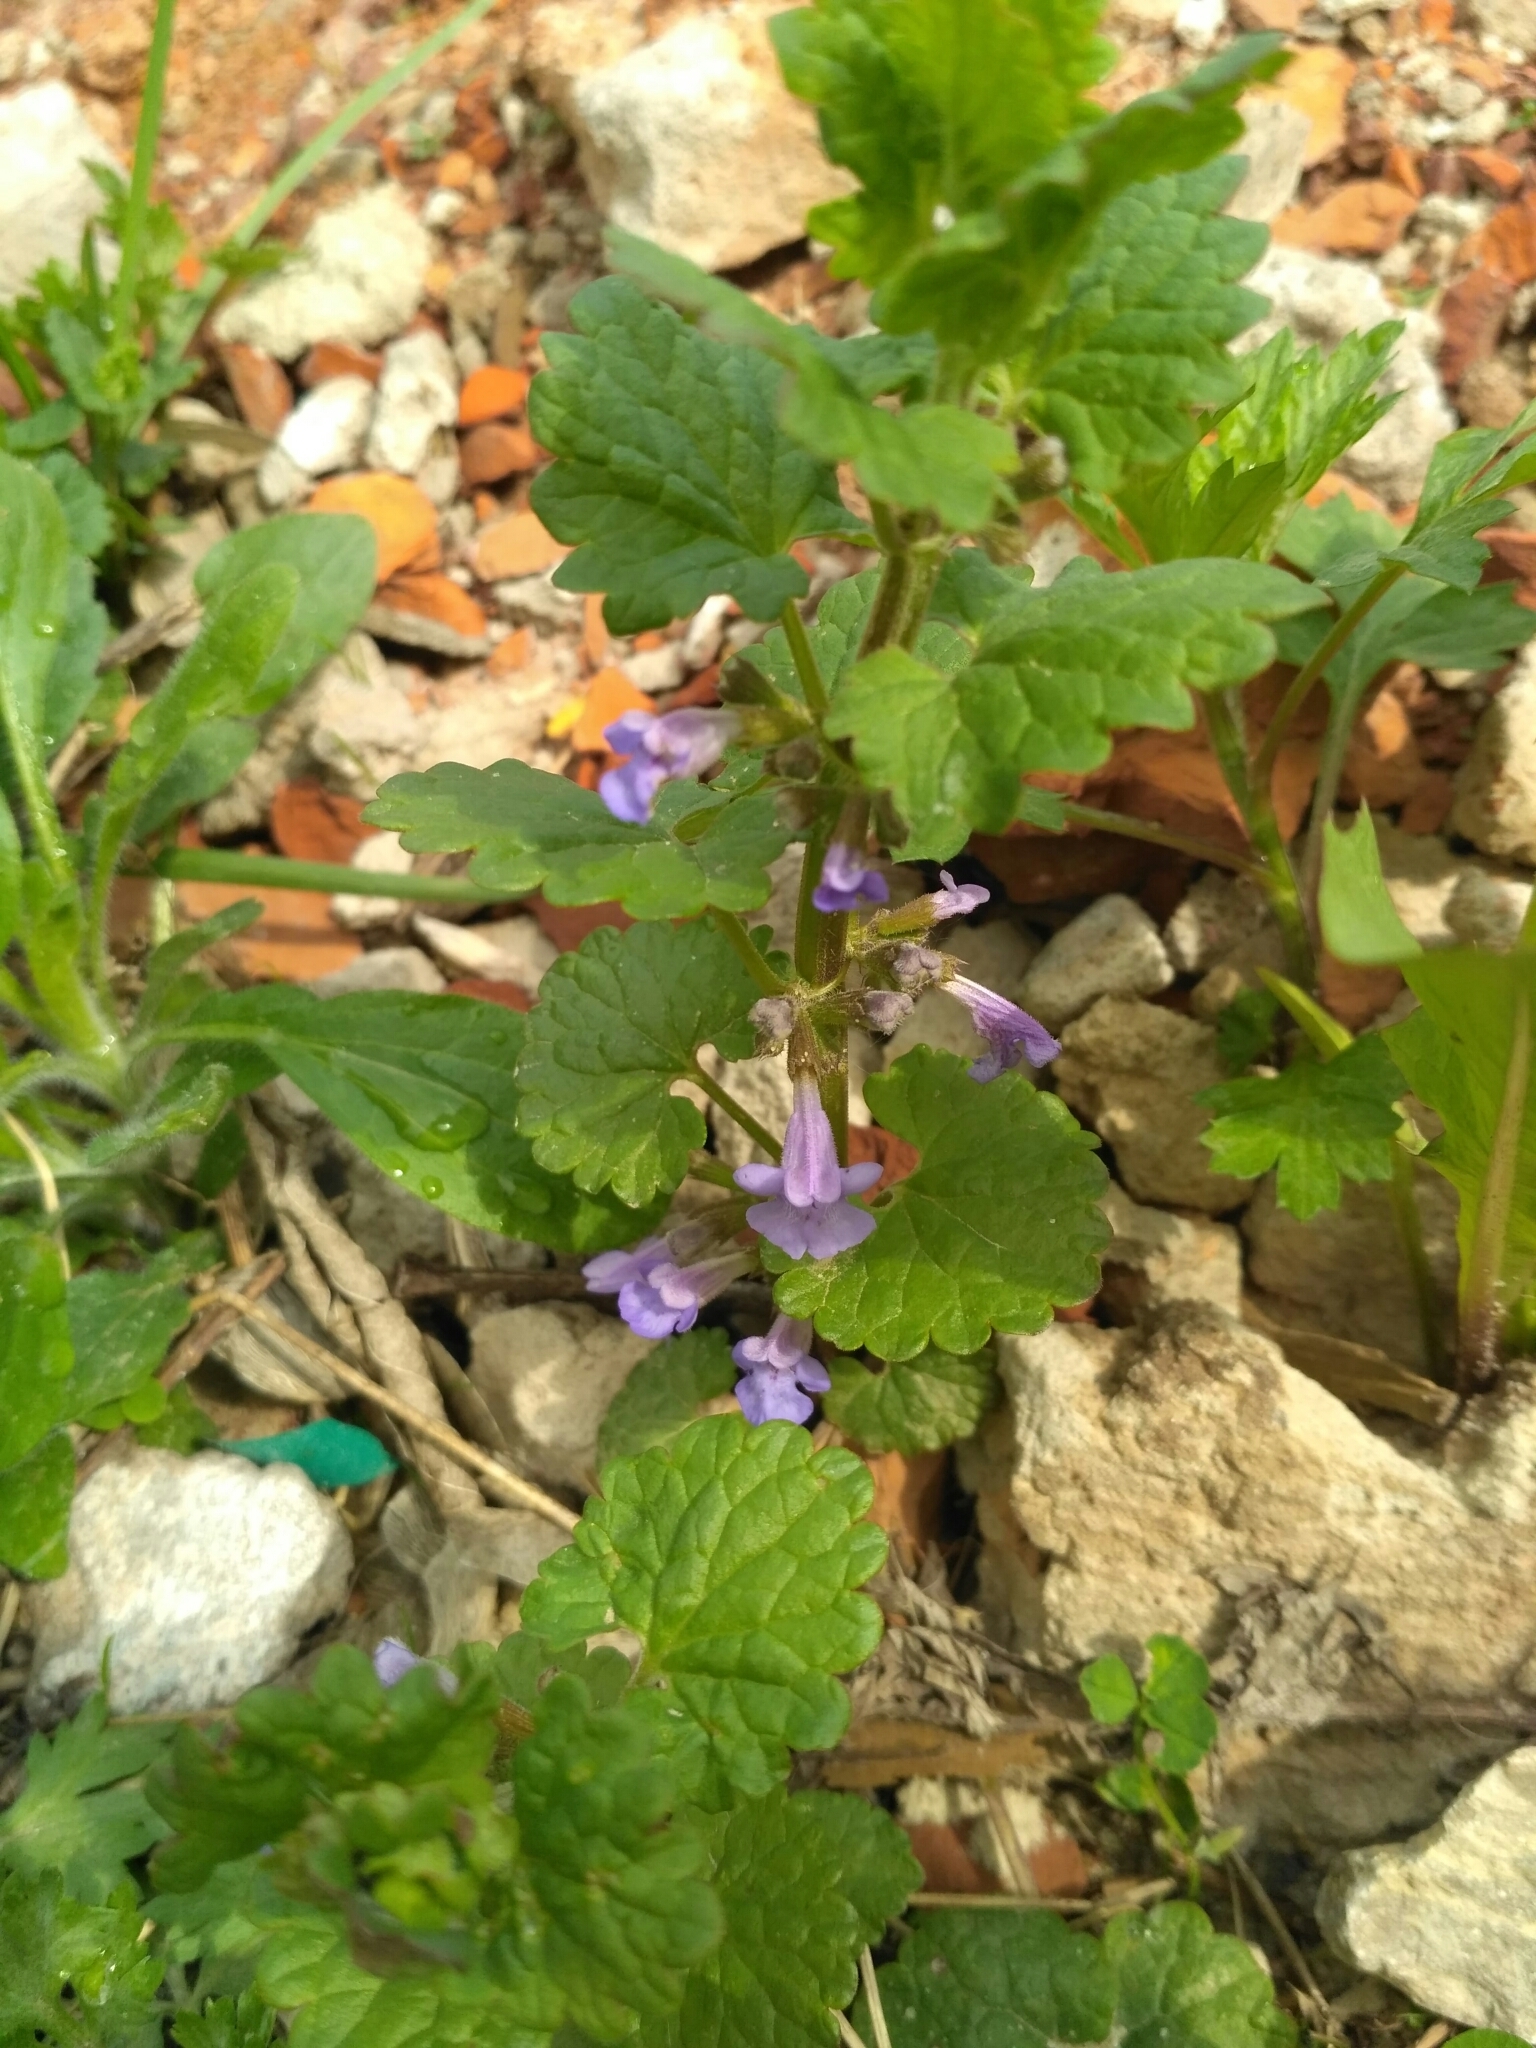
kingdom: Plantae
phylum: Tracheophyta
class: Magnoliopsida
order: Lamiales
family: Lamiaceae
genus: Glechoma
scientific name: Glechoma hederacea
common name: Ground ivy
